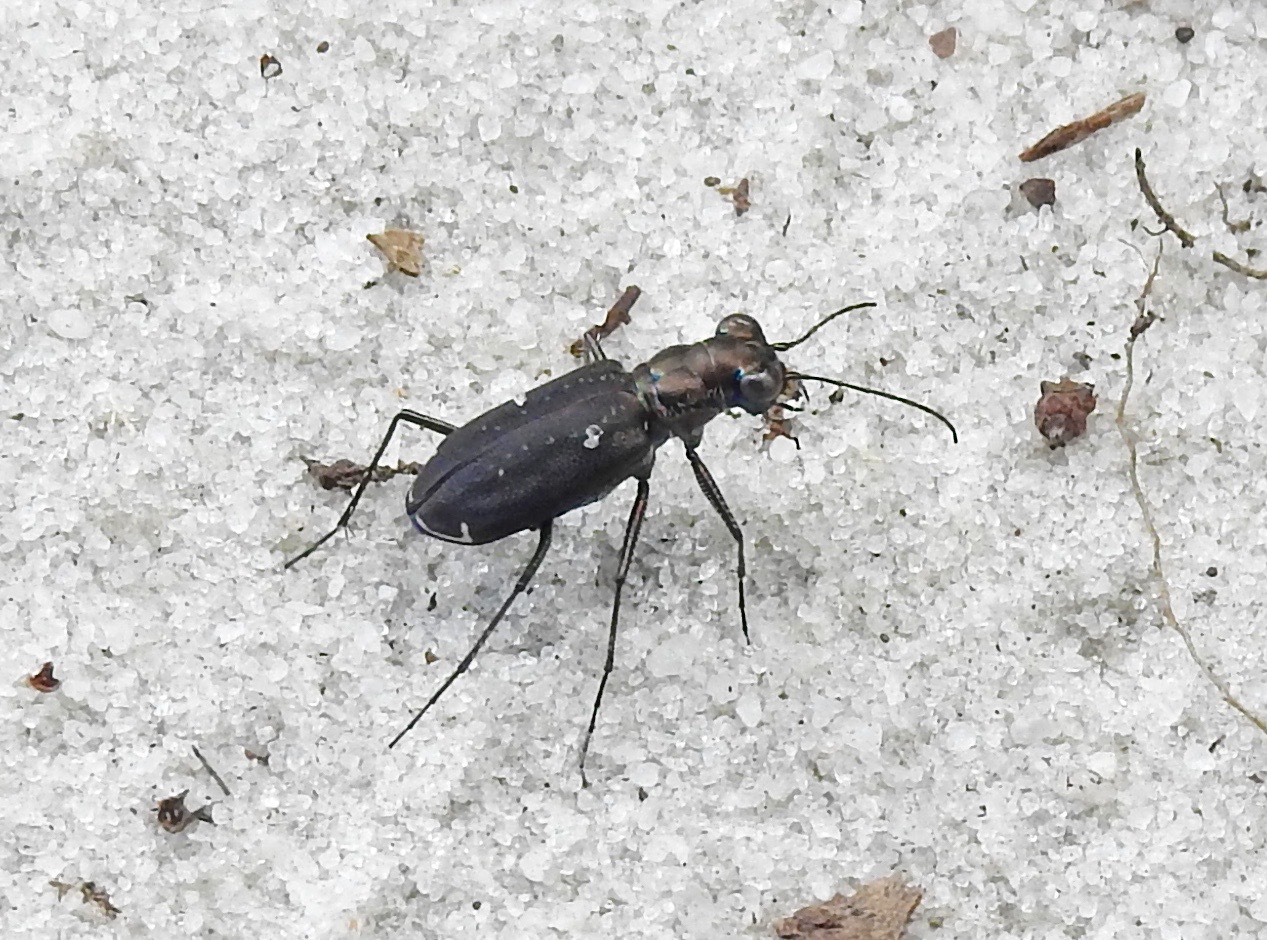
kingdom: Animalia
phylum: Arthropoda
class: Insecta
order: Coleoptera
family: Carabidae
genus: Cicindela
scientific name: Cicindela punctulata
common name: Punctured tiger beetle
